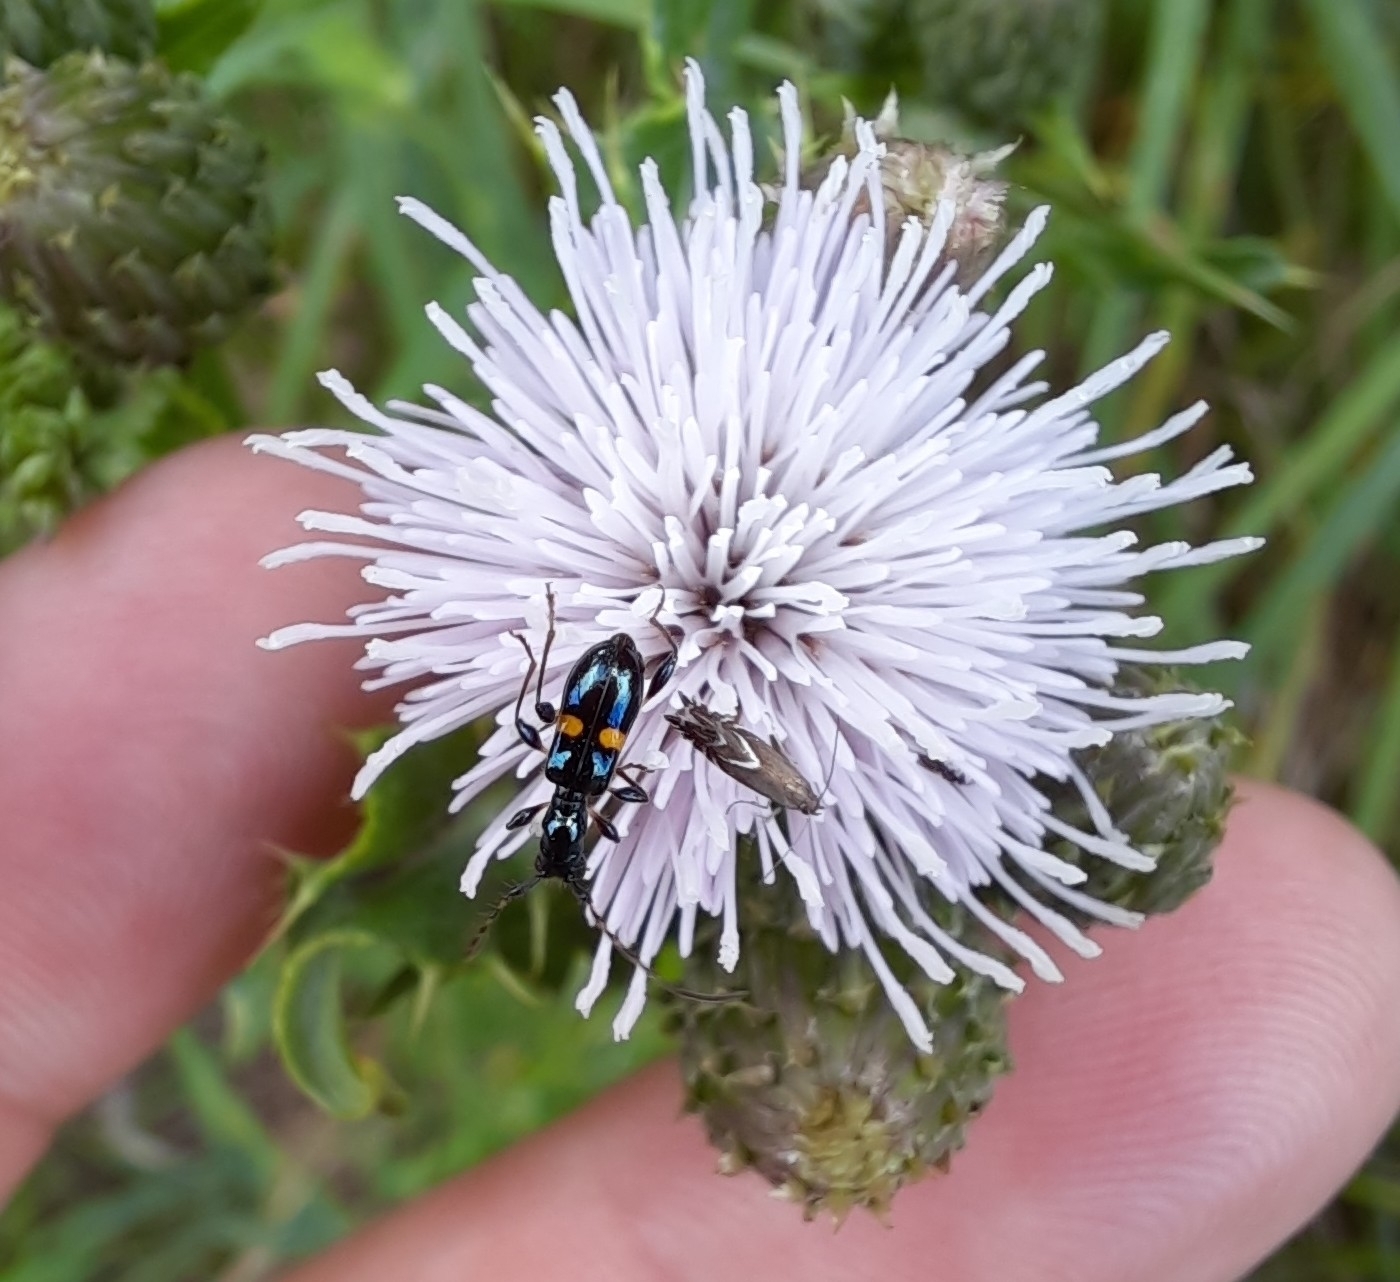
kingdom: Animalia
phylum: Arthropoda
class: Insecta
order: Coleoptera
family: Cerambycidae
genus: Zorion
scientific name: Zorion guttigerum
